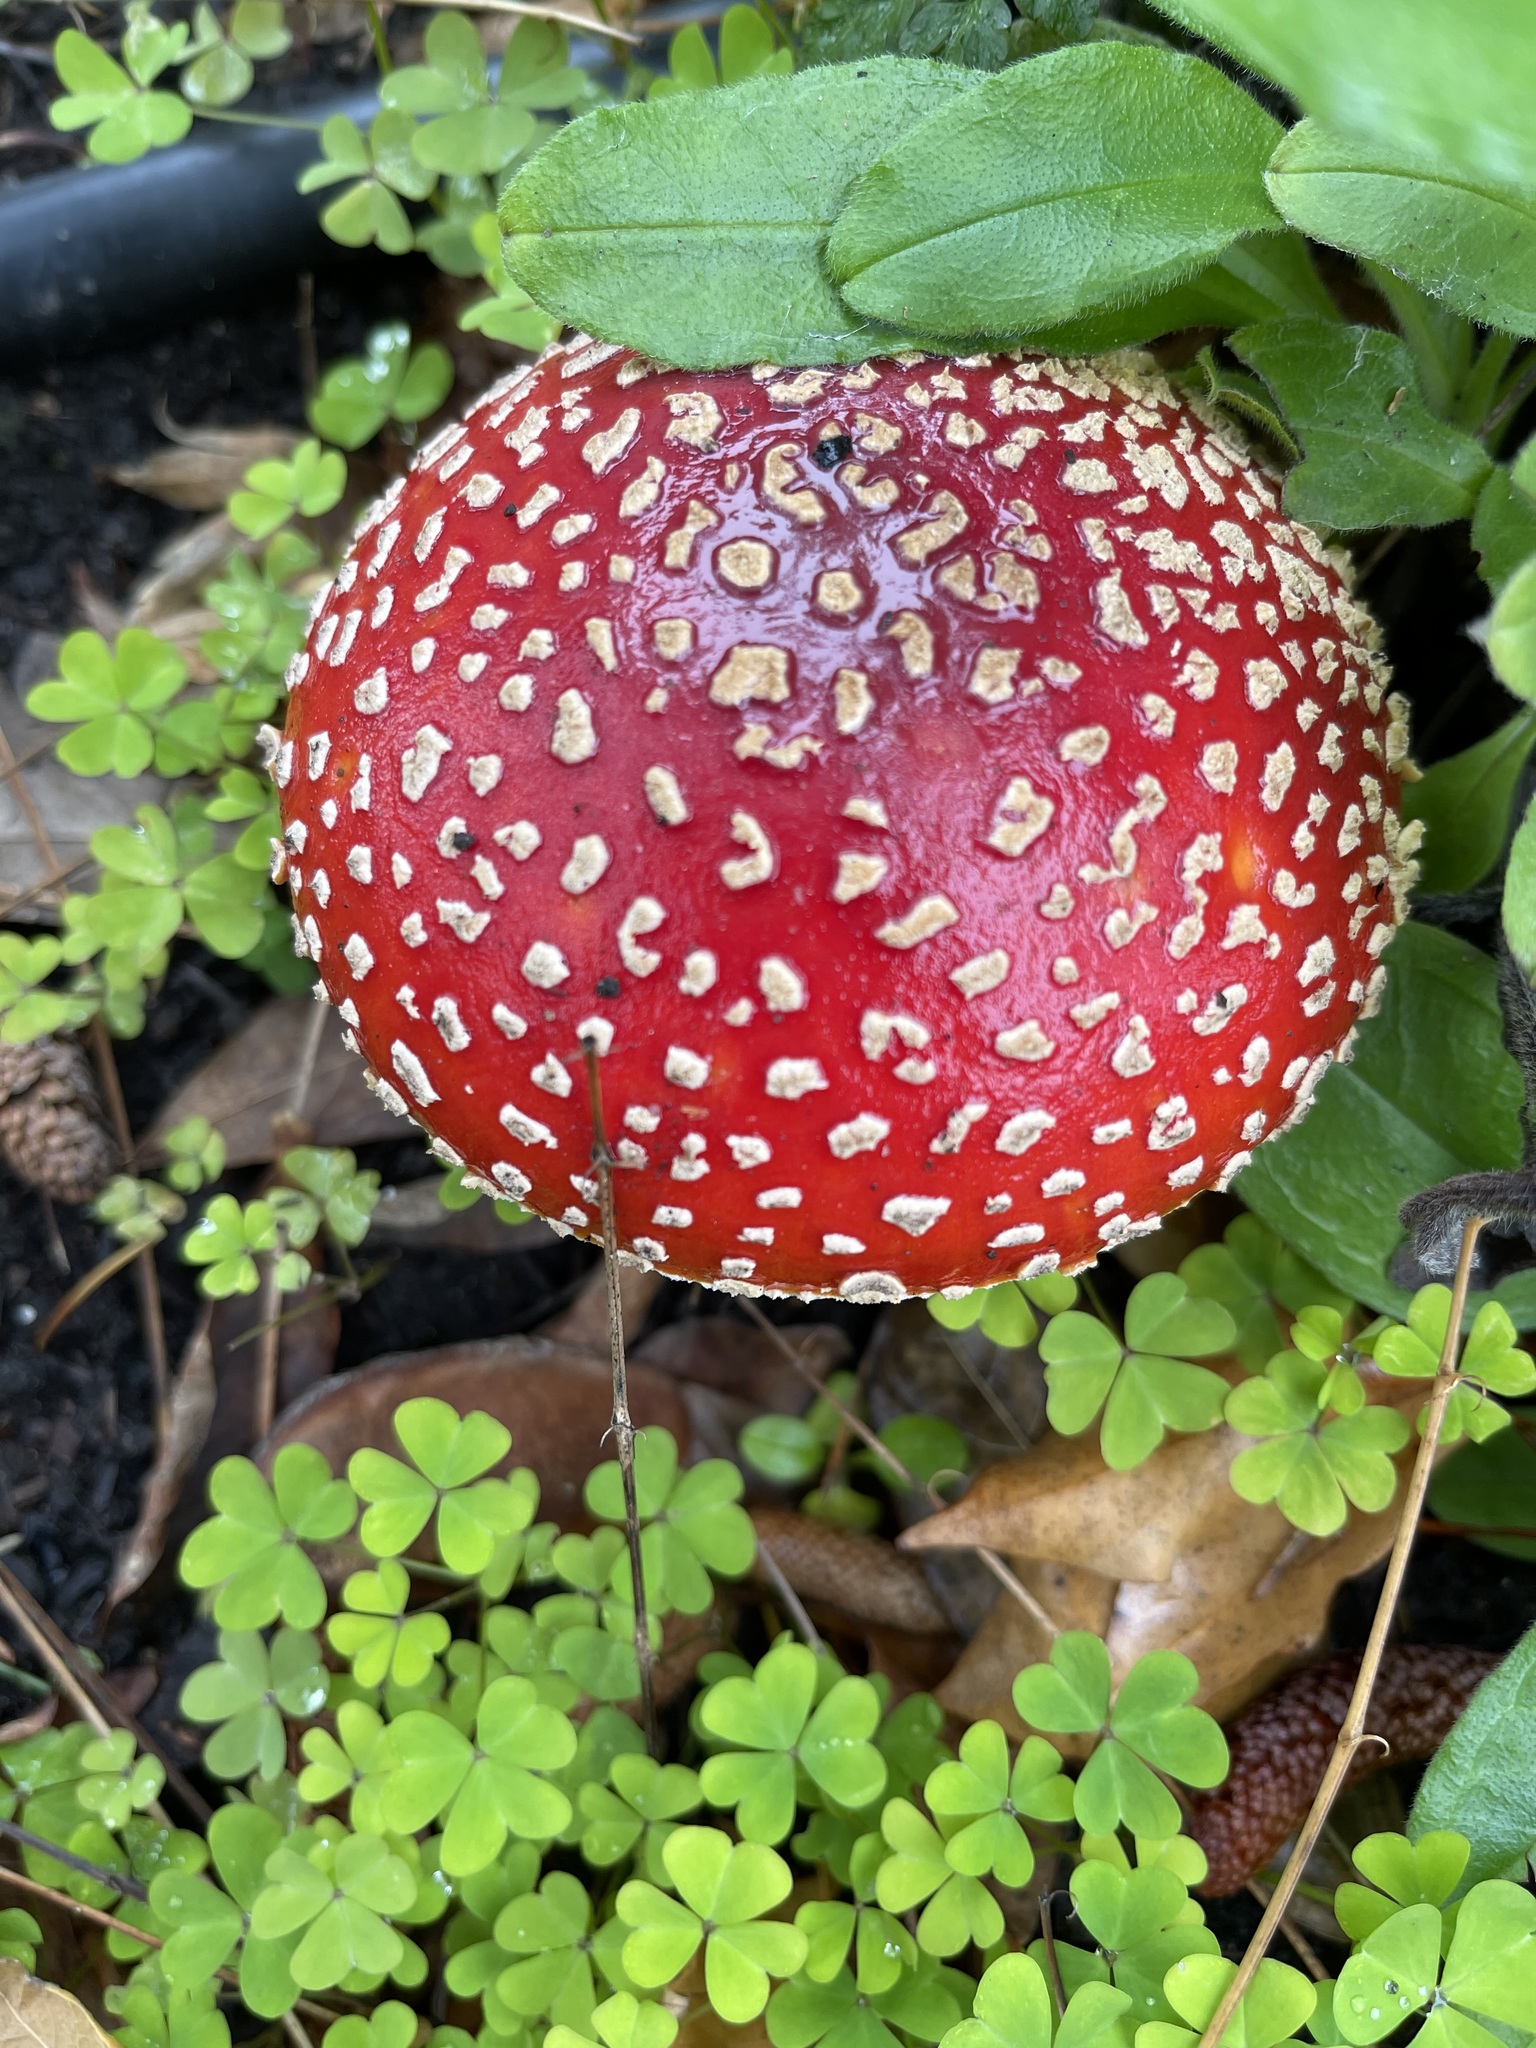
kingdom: Fungi
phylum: Basidiomycota
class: Agaricomycetes
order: Agaricales
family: Amanitaceae
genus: Amanita
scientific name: Amanita muscaria
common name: Fly agaric
